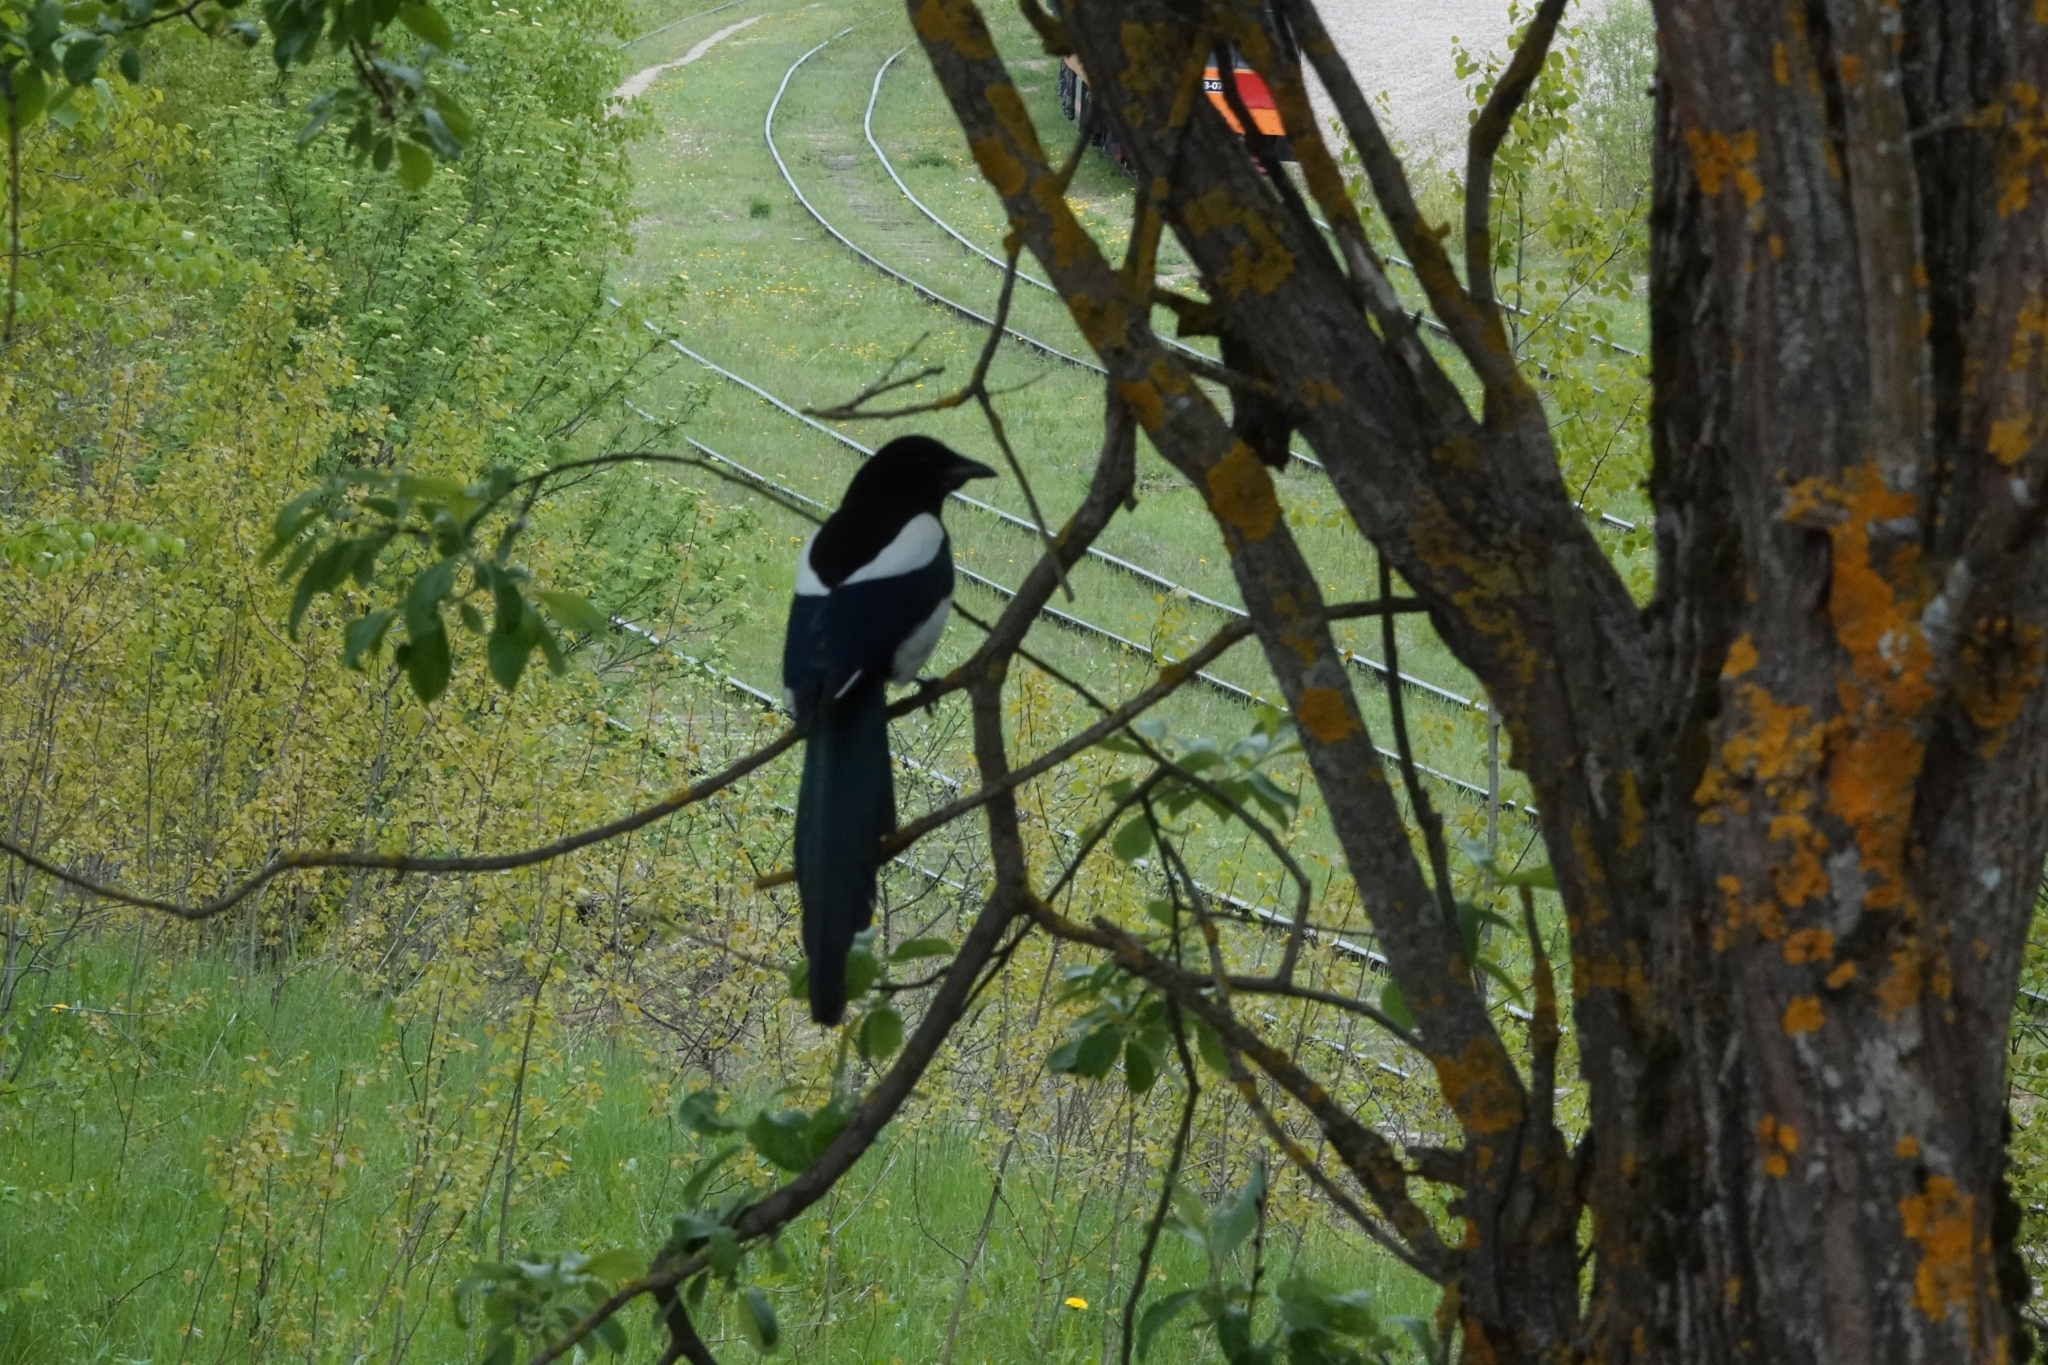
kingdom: Animalia
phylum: Chordata
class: Aves
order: Passeriformes
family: Corvidae
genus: Pica
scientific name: Pica pica
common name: Eurasian magpie
